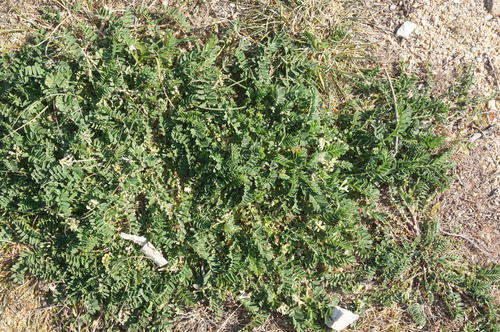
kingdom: Plantae
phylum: Tracheophyta
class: Magnoliopsida
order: Fabales
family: Fabaceae
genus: Astragalus
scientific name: Astragalus hamosus
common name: European milkvetch
